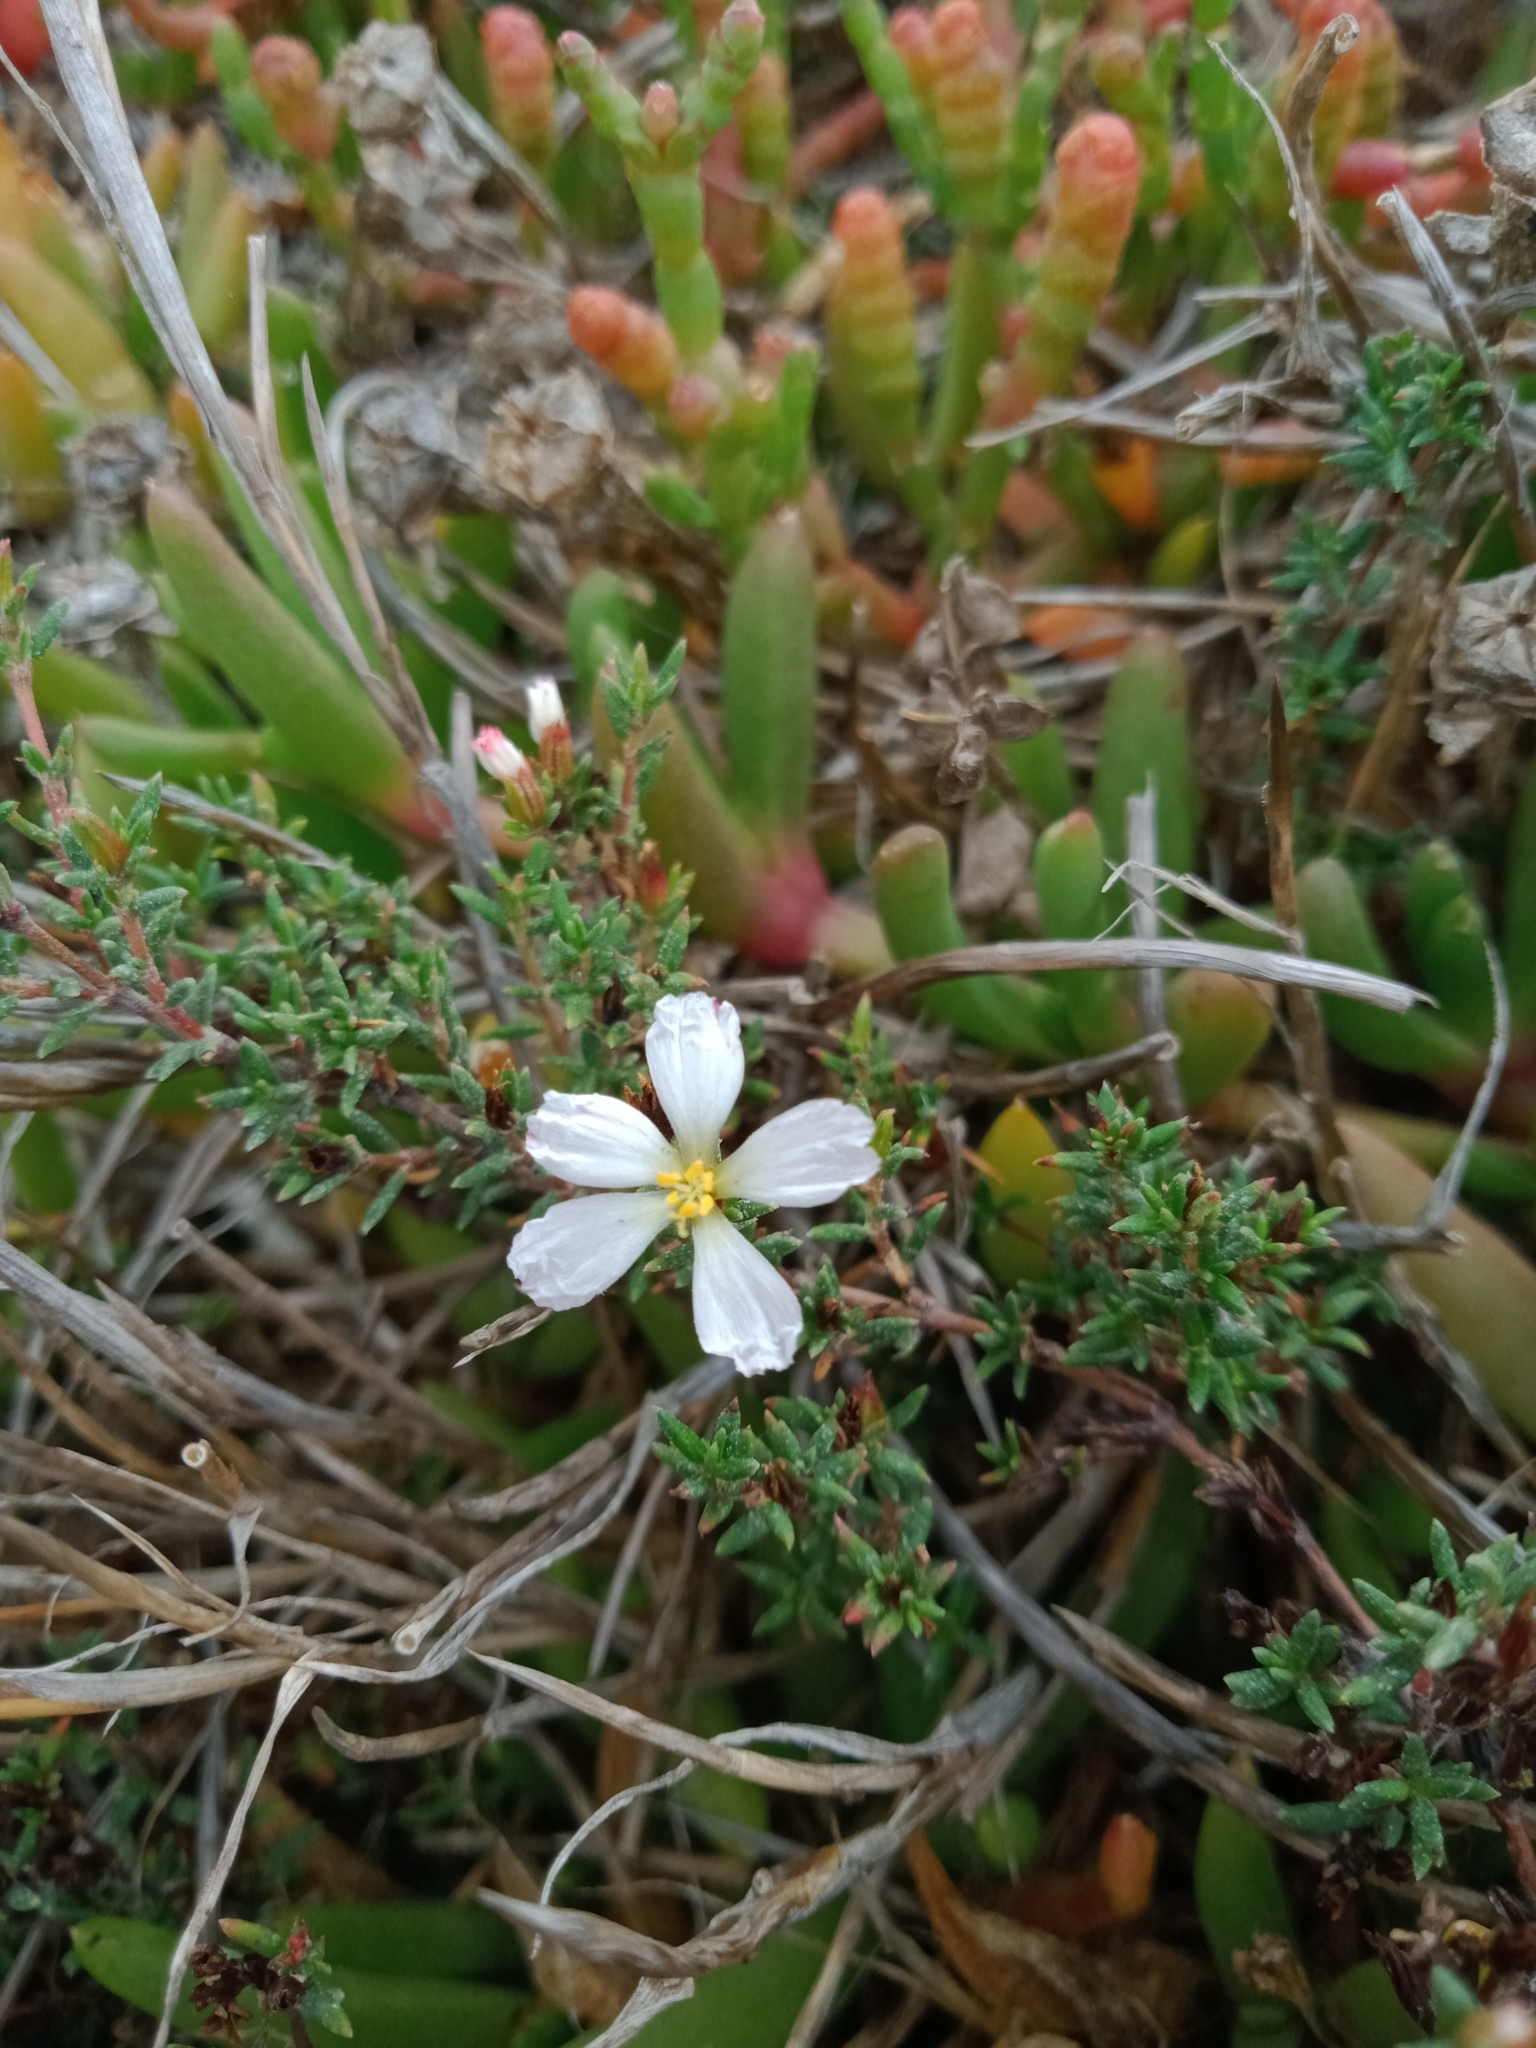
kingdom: Plantae
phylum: Tracheophyta
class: Magnoliopsida
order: Caryophyllales
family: Frankeniaceae
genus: Frankenia
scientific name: Frankenia pauciflora
